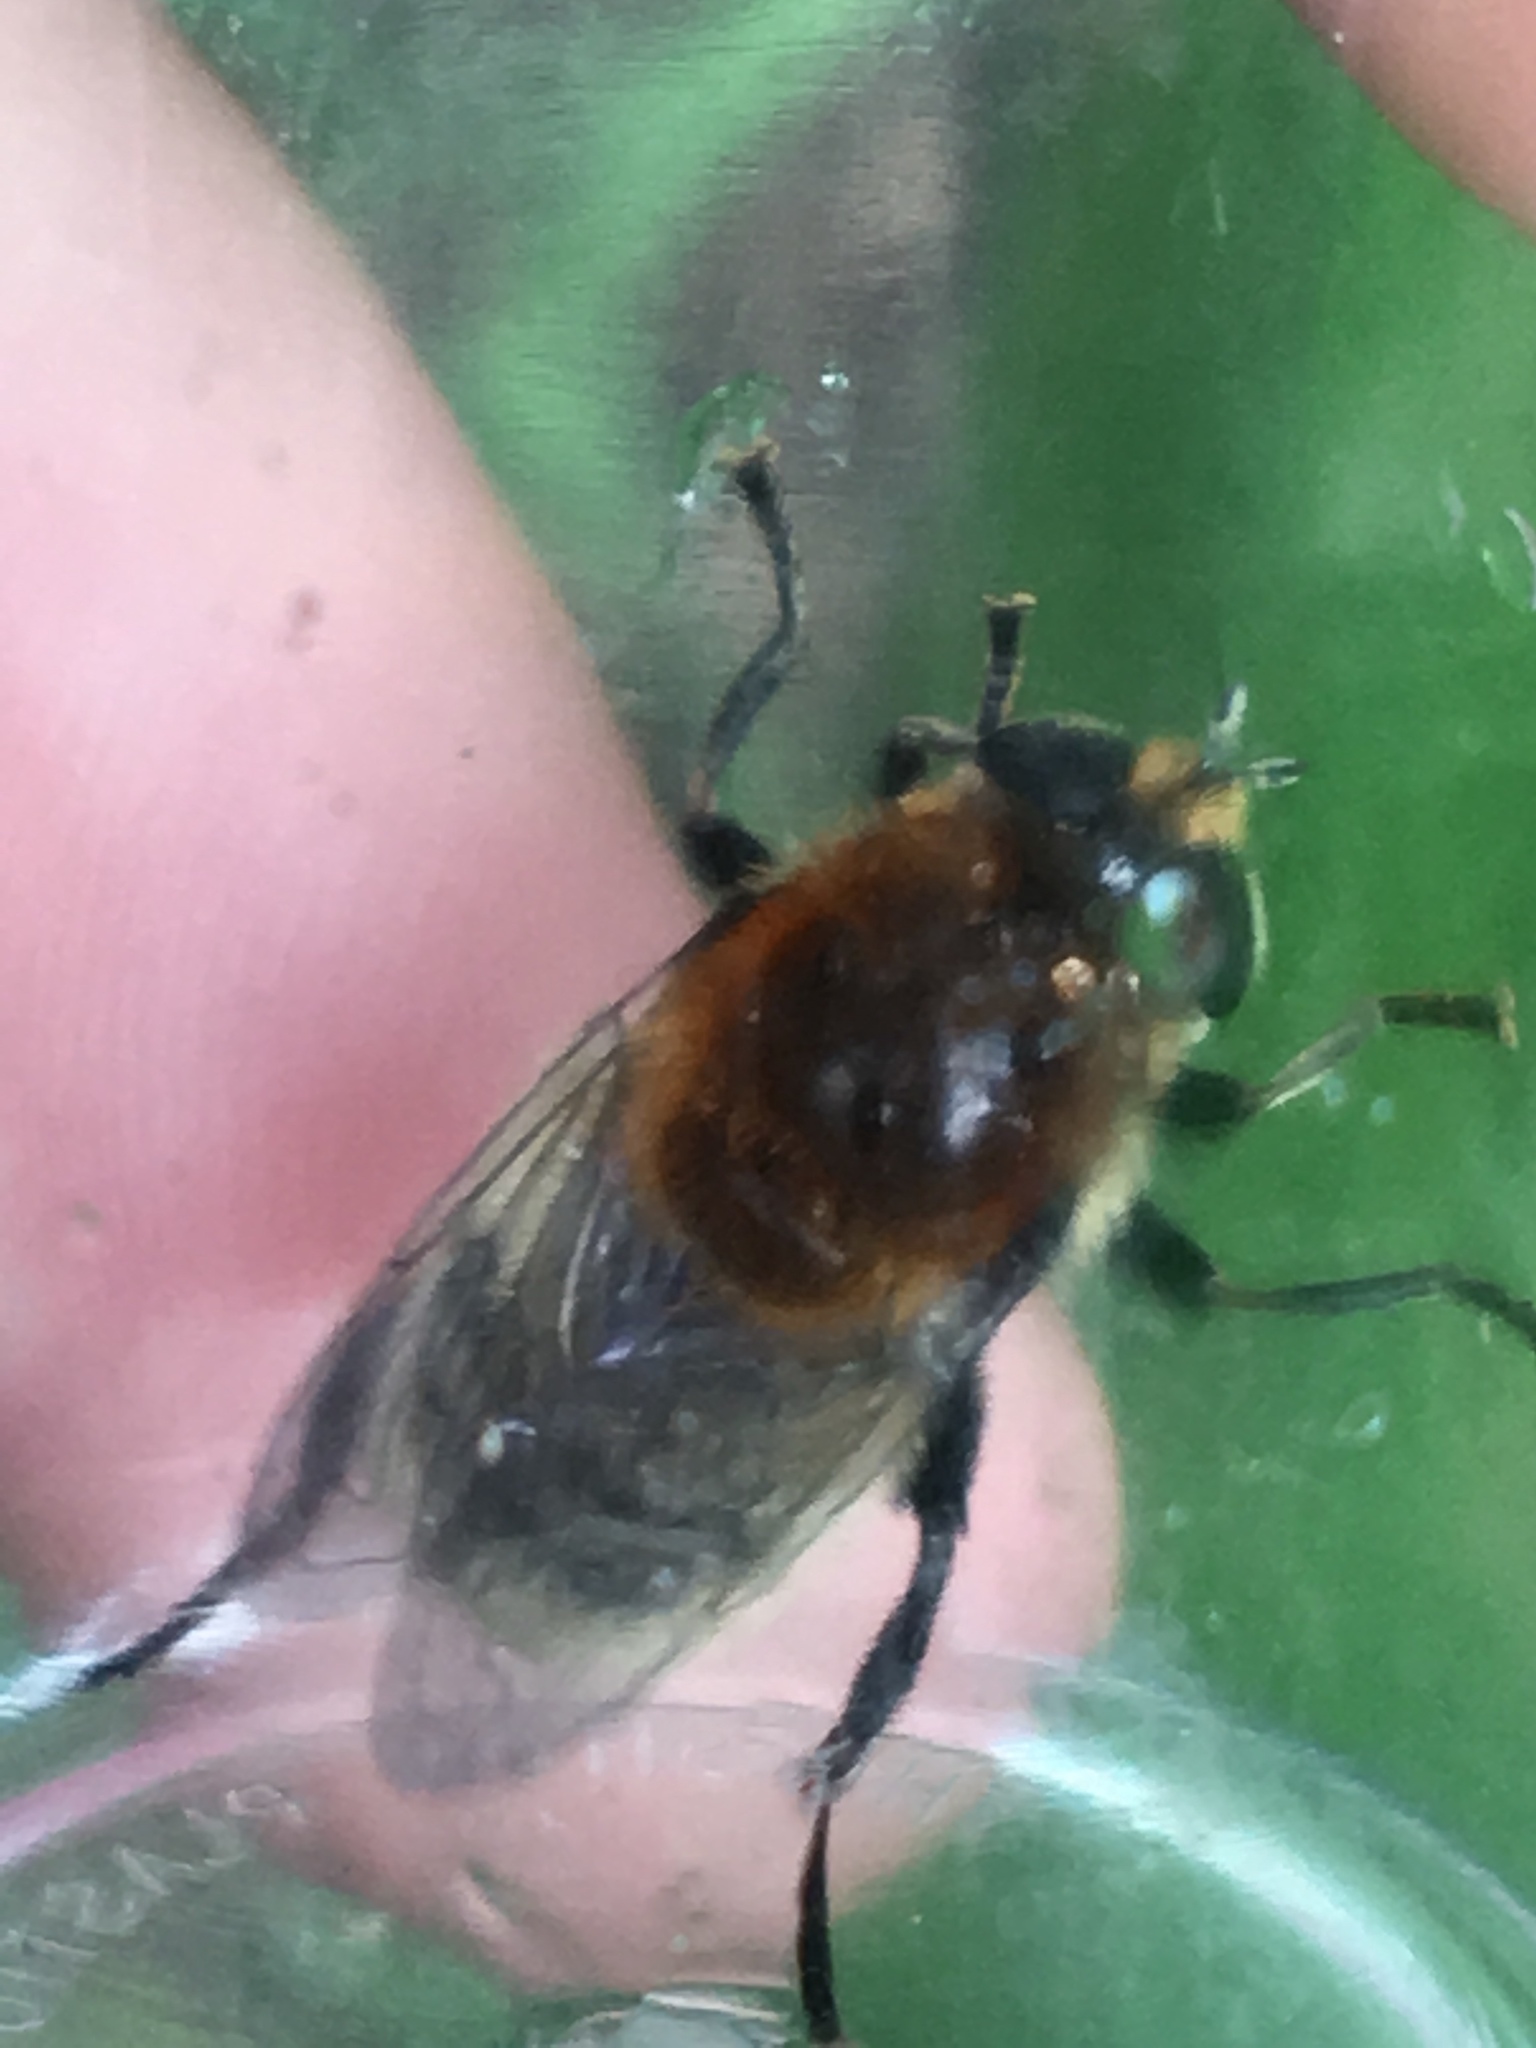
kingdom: Animalia
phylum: Arthropoda
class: Insecta
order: Diptera
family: Syrphidae
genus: Merodon
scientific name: Merodon equestris
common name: Greater bulb-fly
